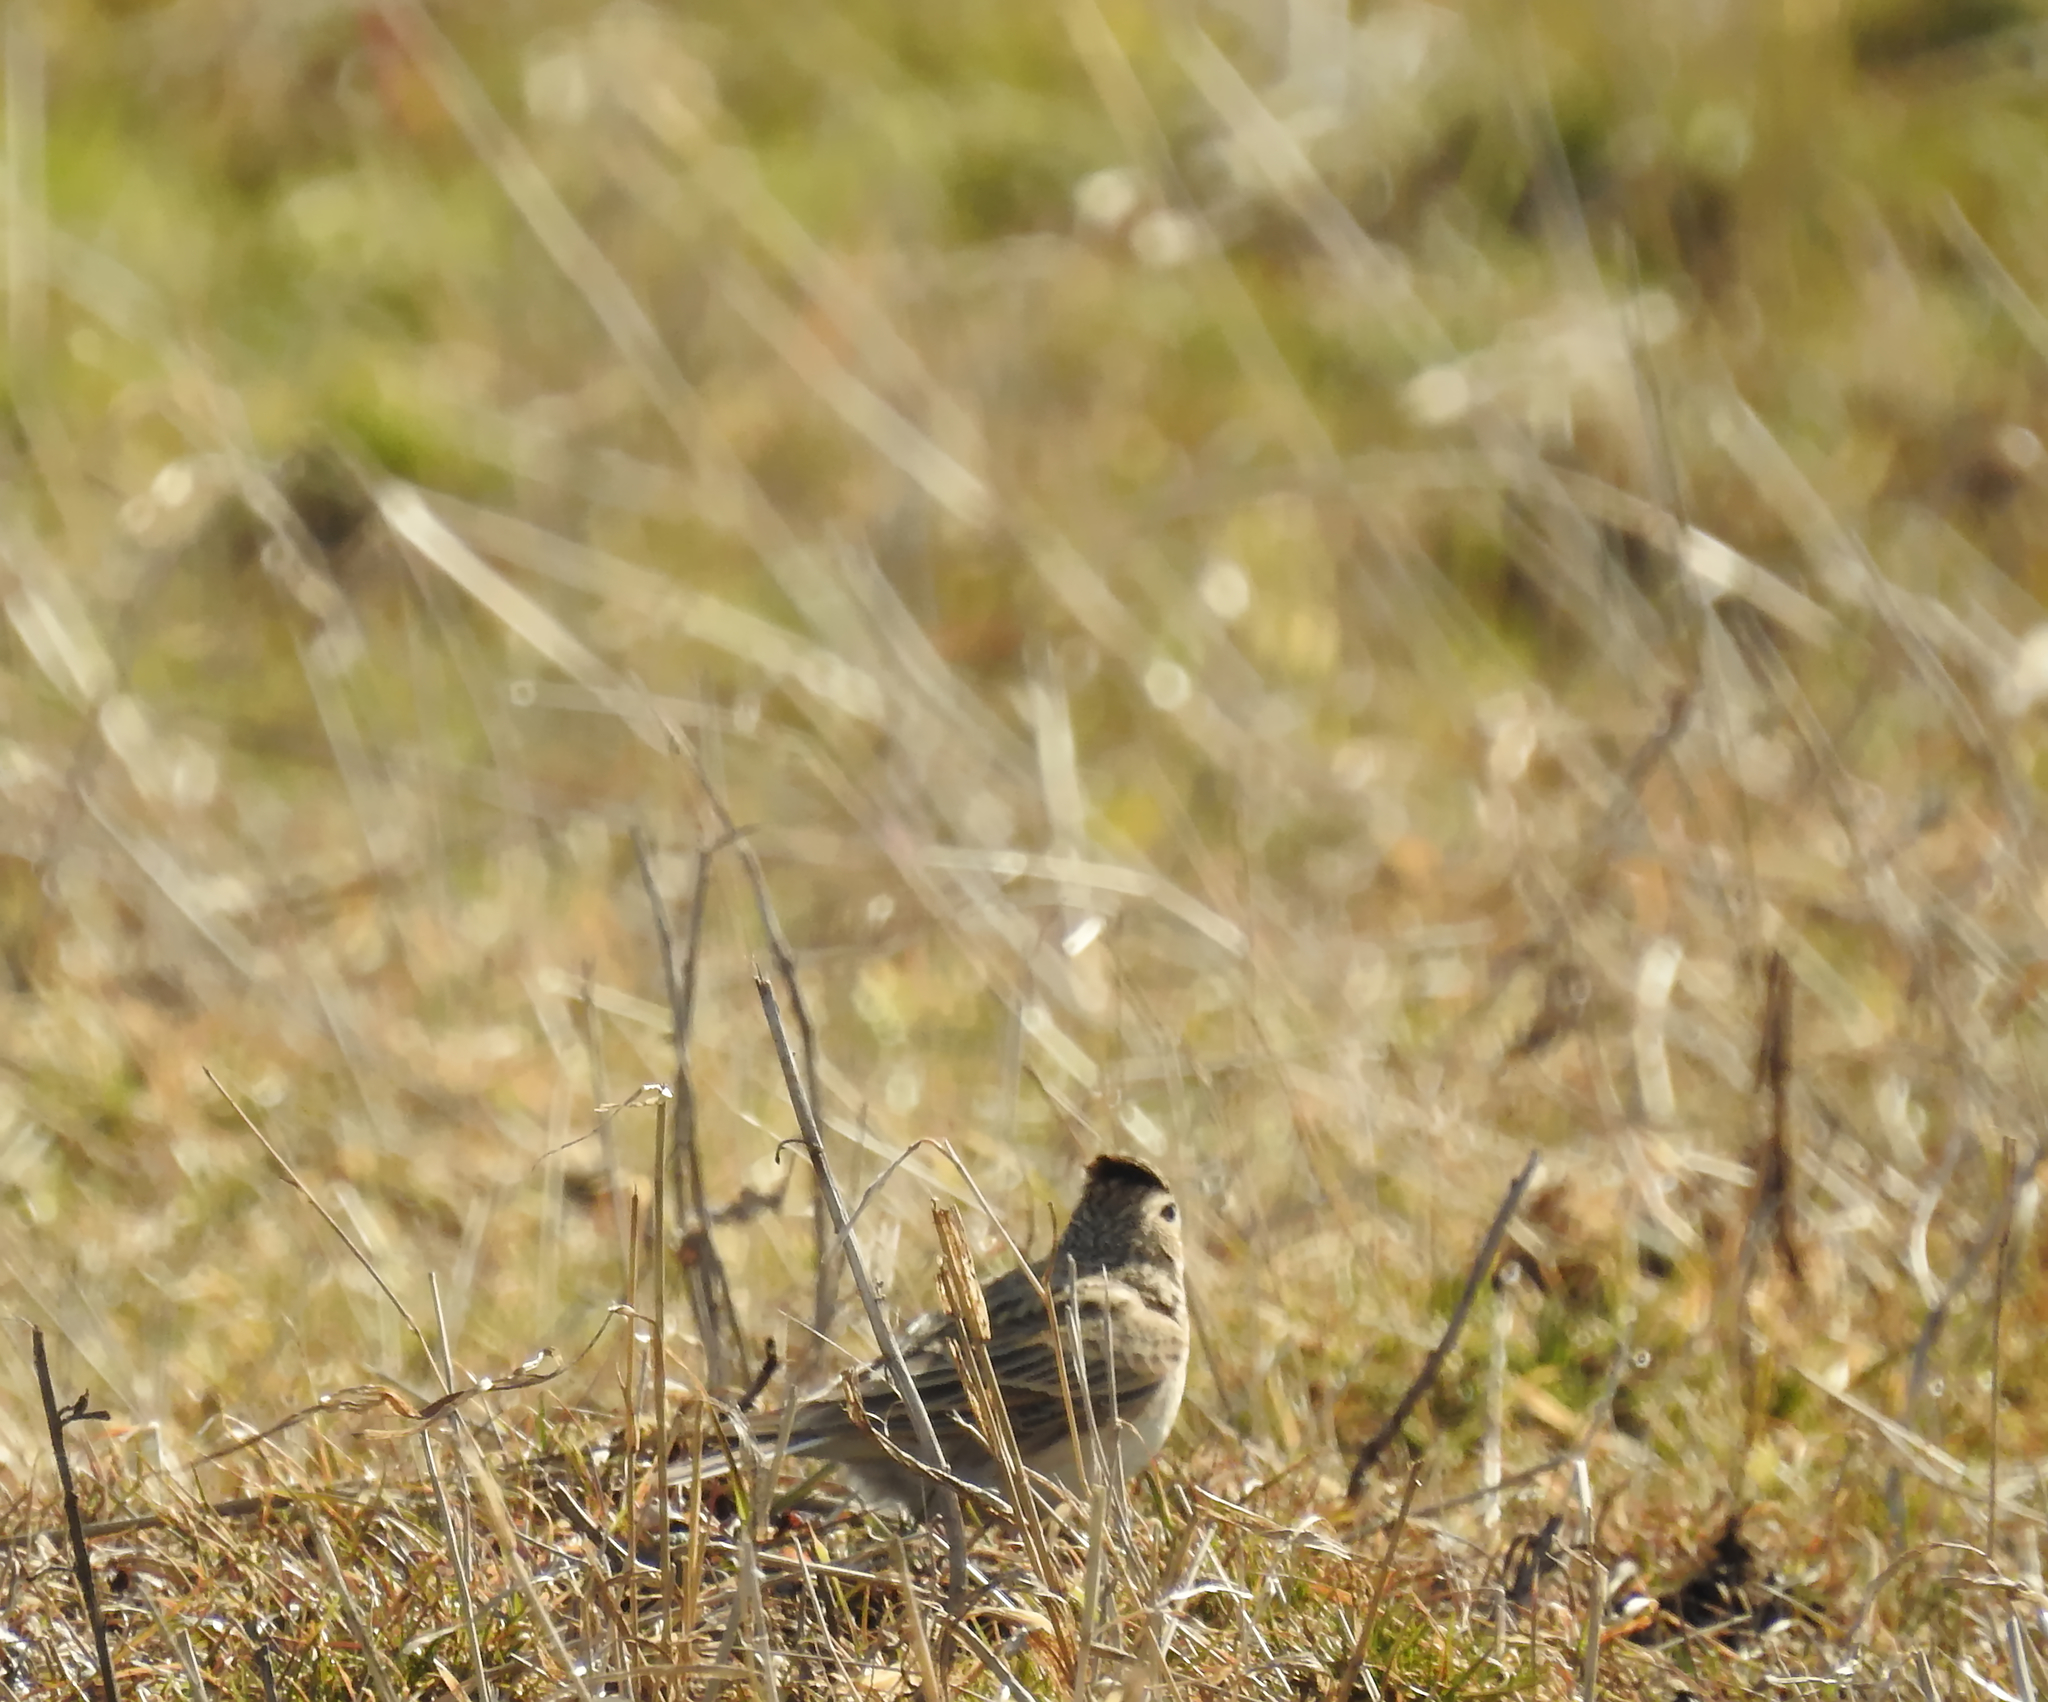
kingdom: Animalia
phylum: Chordata
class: Aves
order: Passeriformes
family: Alaudidae
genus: Alauda
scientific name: Alauda arvensis
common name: Eurasian skylark
